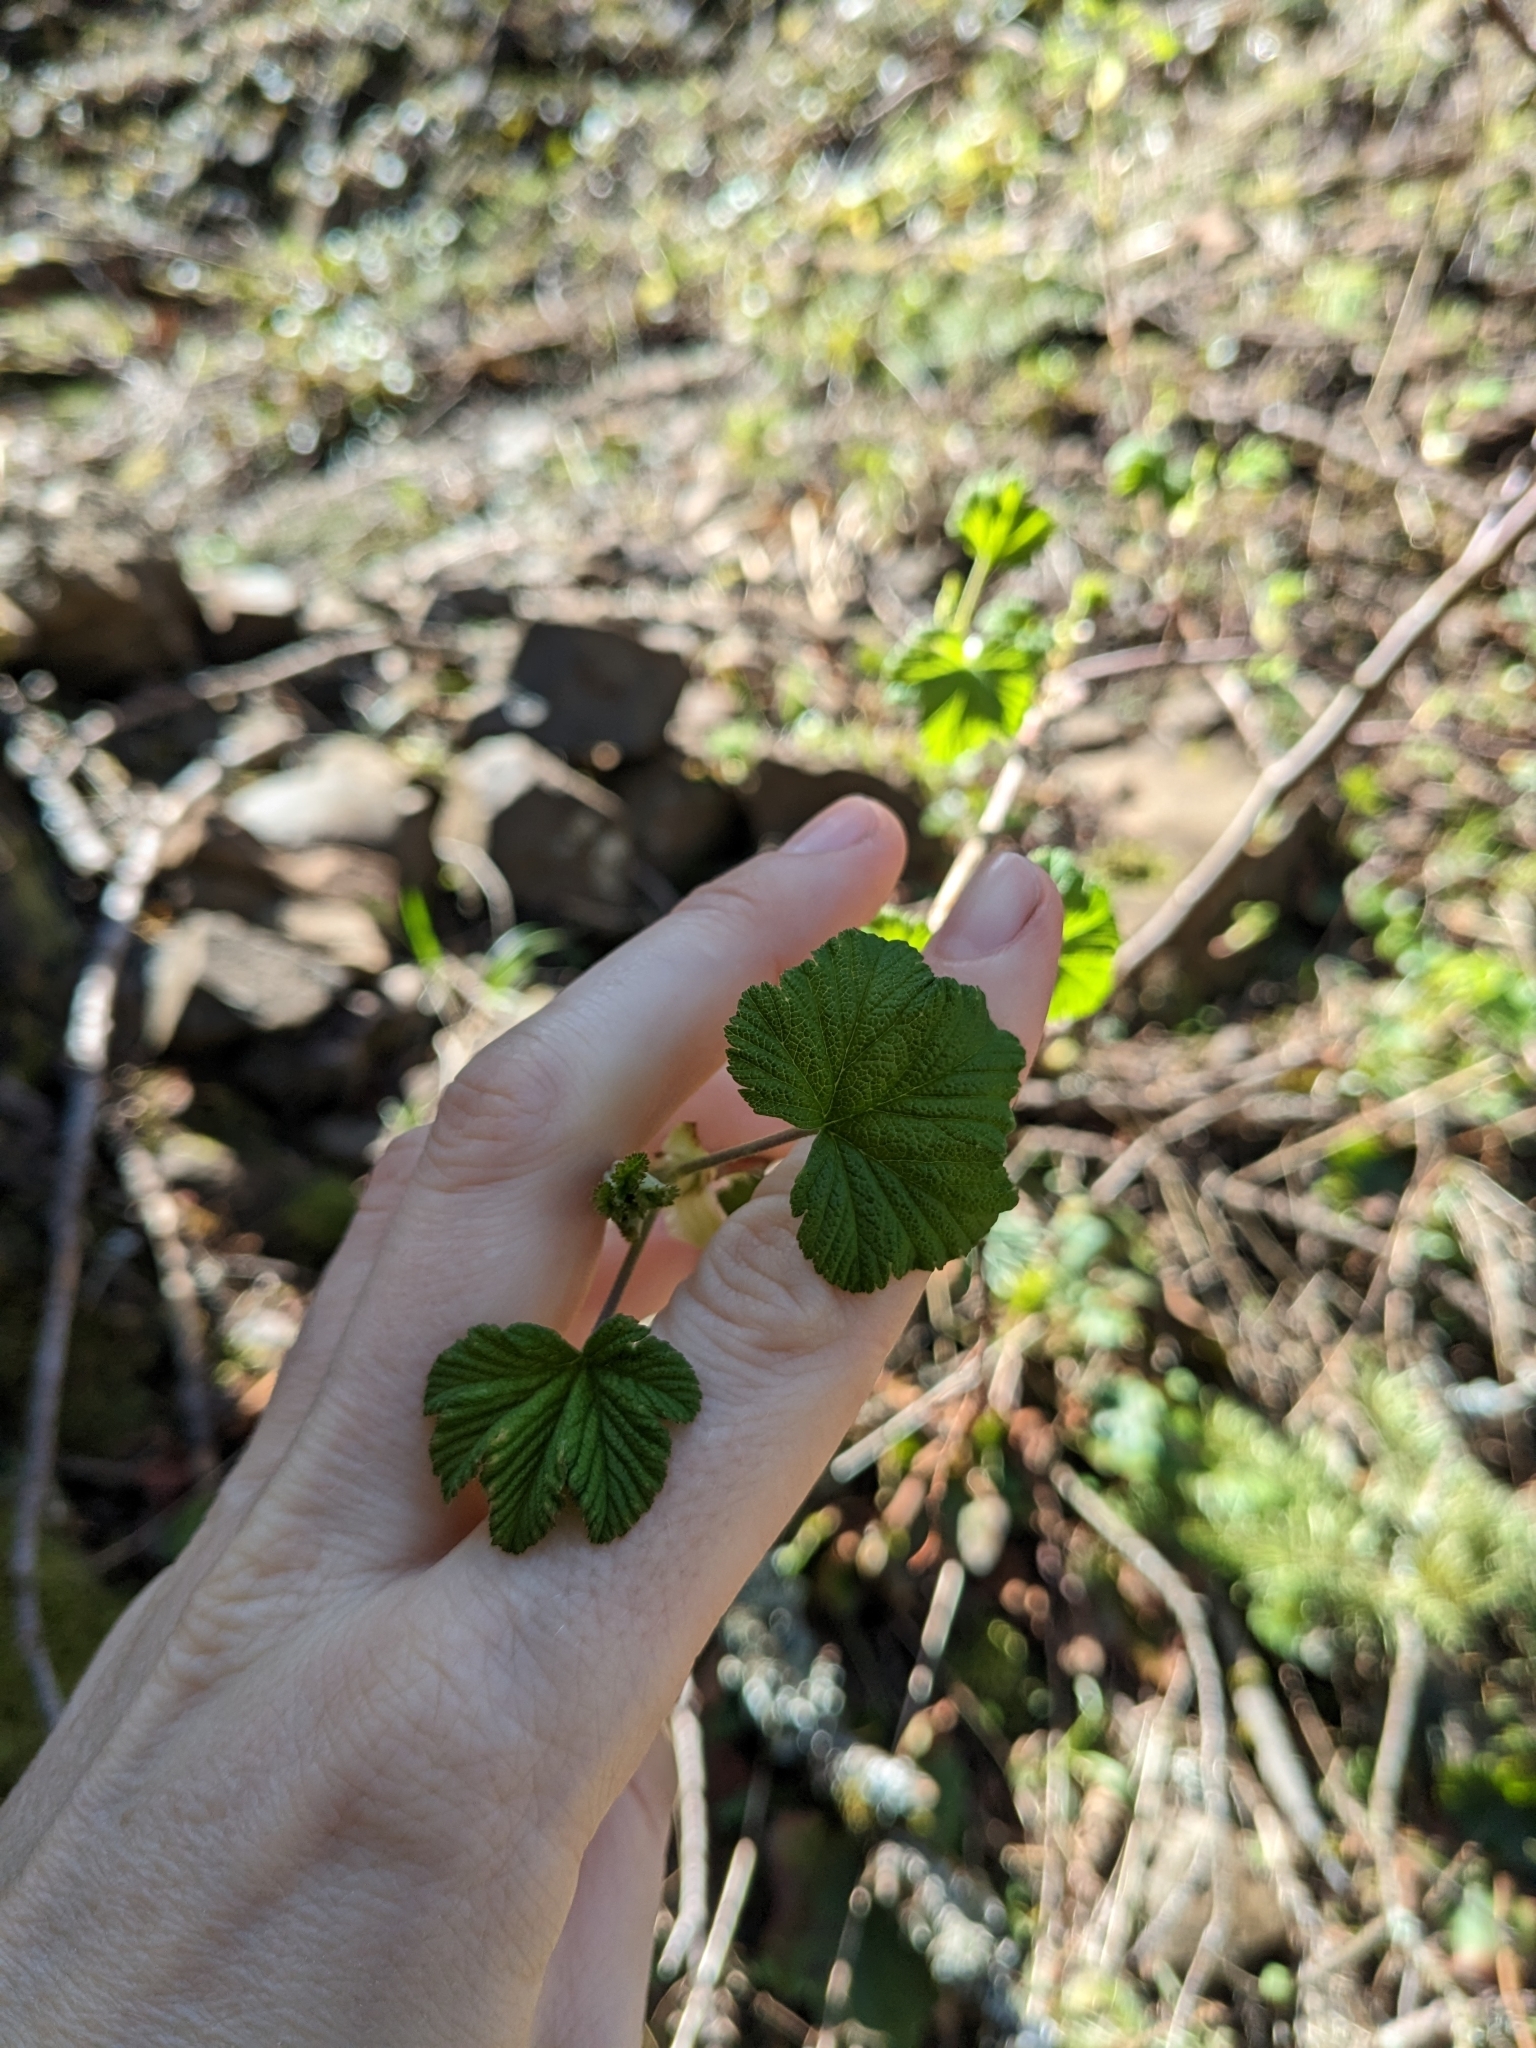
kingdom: Plantae
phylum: Tracheophyta
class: Magnoliopsida
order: Saxifragales
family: Grossulariaceae
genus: Ribes
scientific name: Ribes sanguineum
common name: Flowering currant
